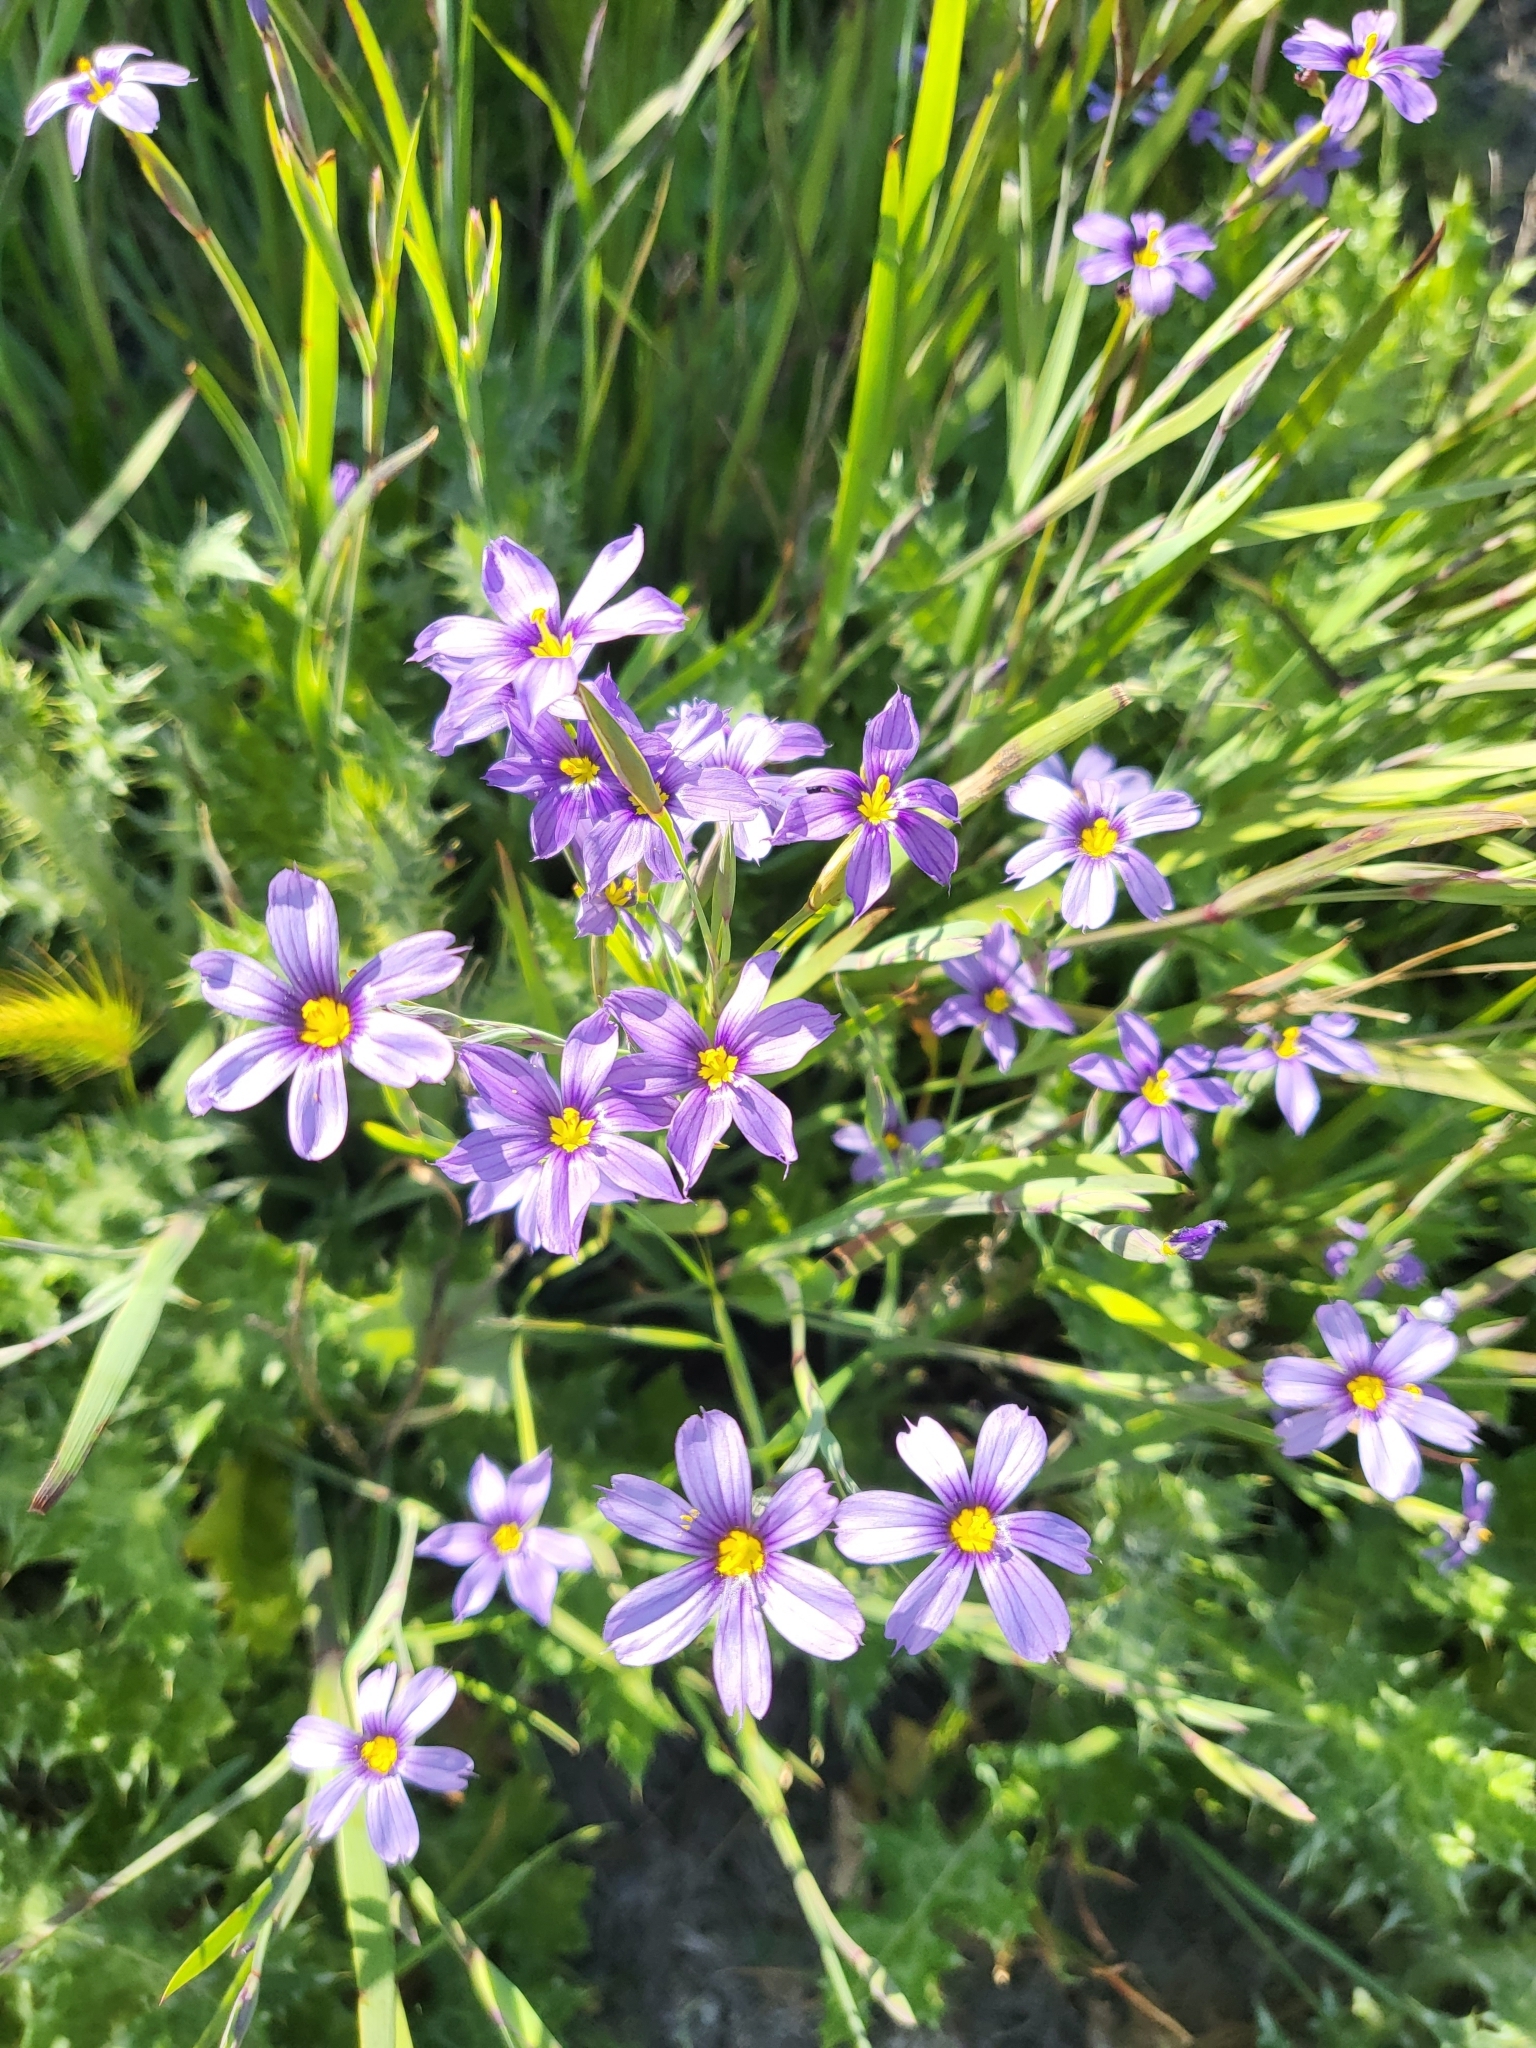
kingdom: Plantae
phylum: Tracheophyta
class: Liliopsida
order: Asparagales
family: Iridaceae
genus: Sisyrinchium
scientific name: Sisyrinchium bellum
